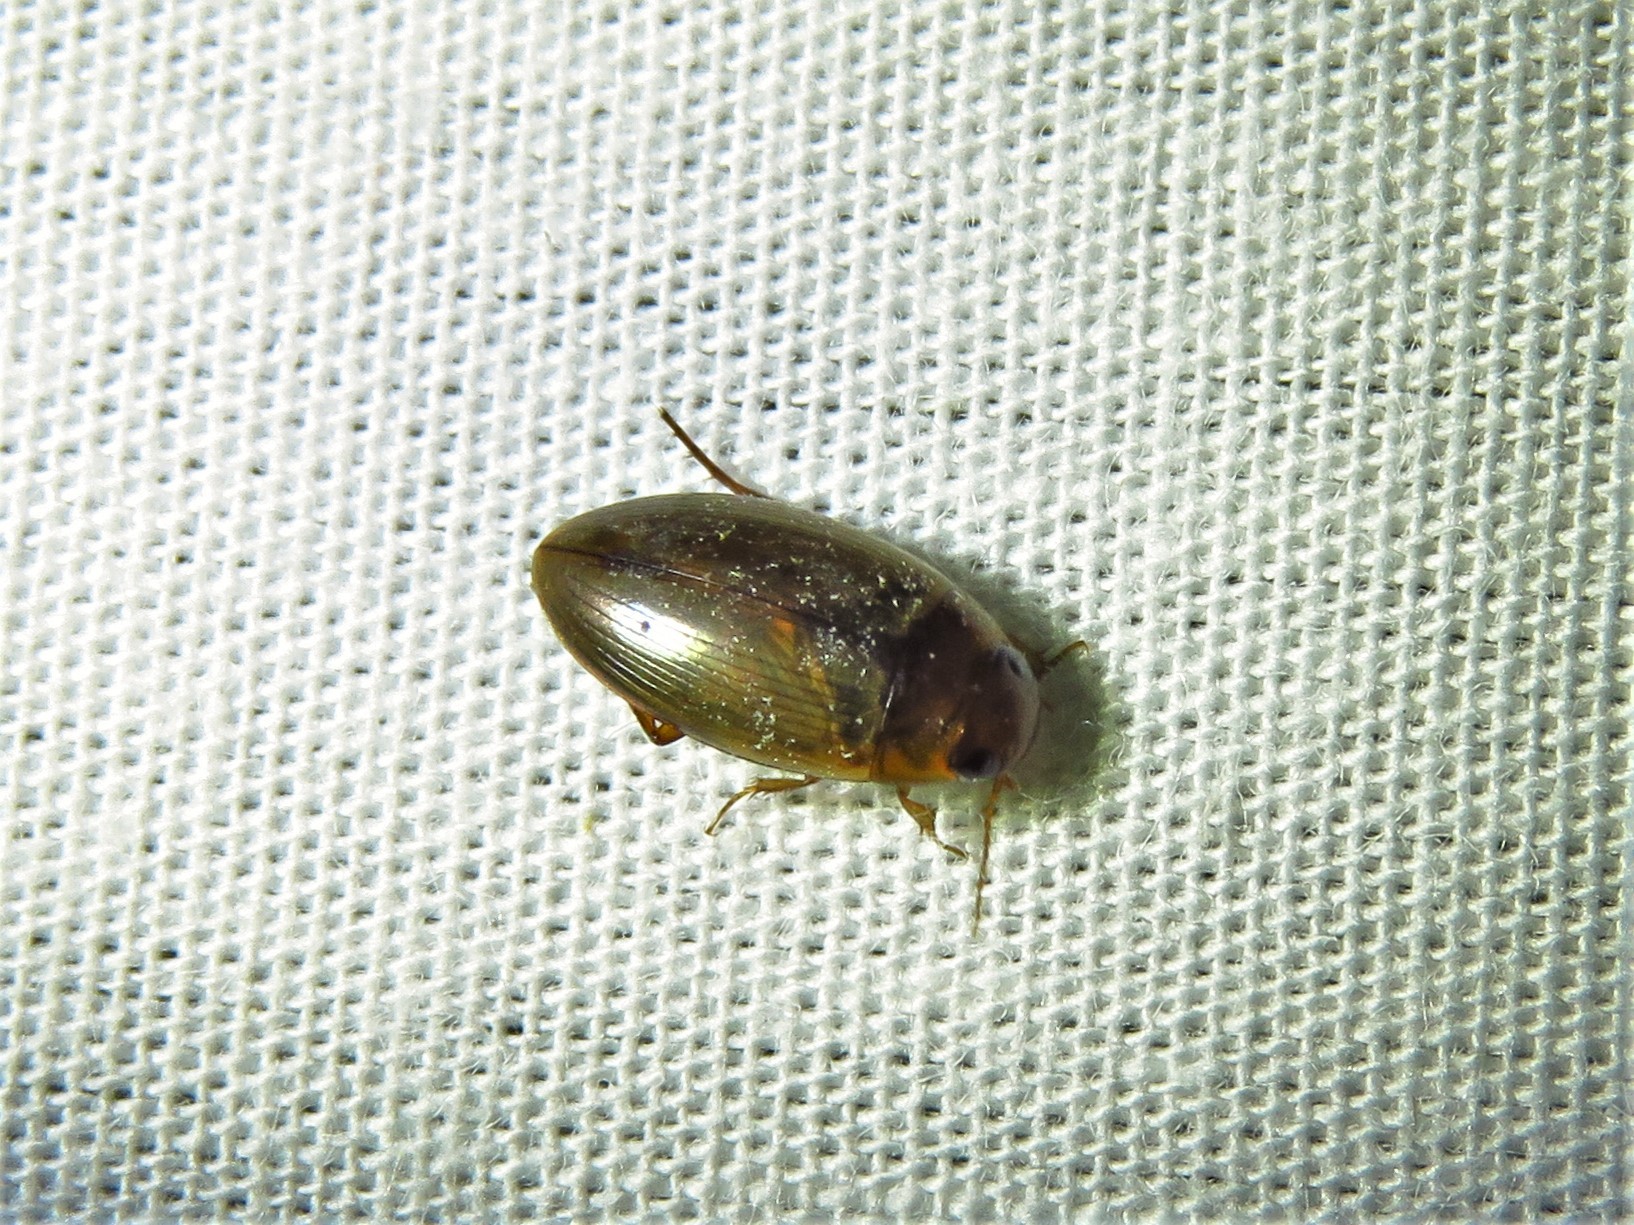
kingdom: Animalia
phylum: Arthropoda
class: Insecta
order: Coleoptera
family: Dytiscidae
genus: Copelatus
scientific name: Copelatus chevrolati
